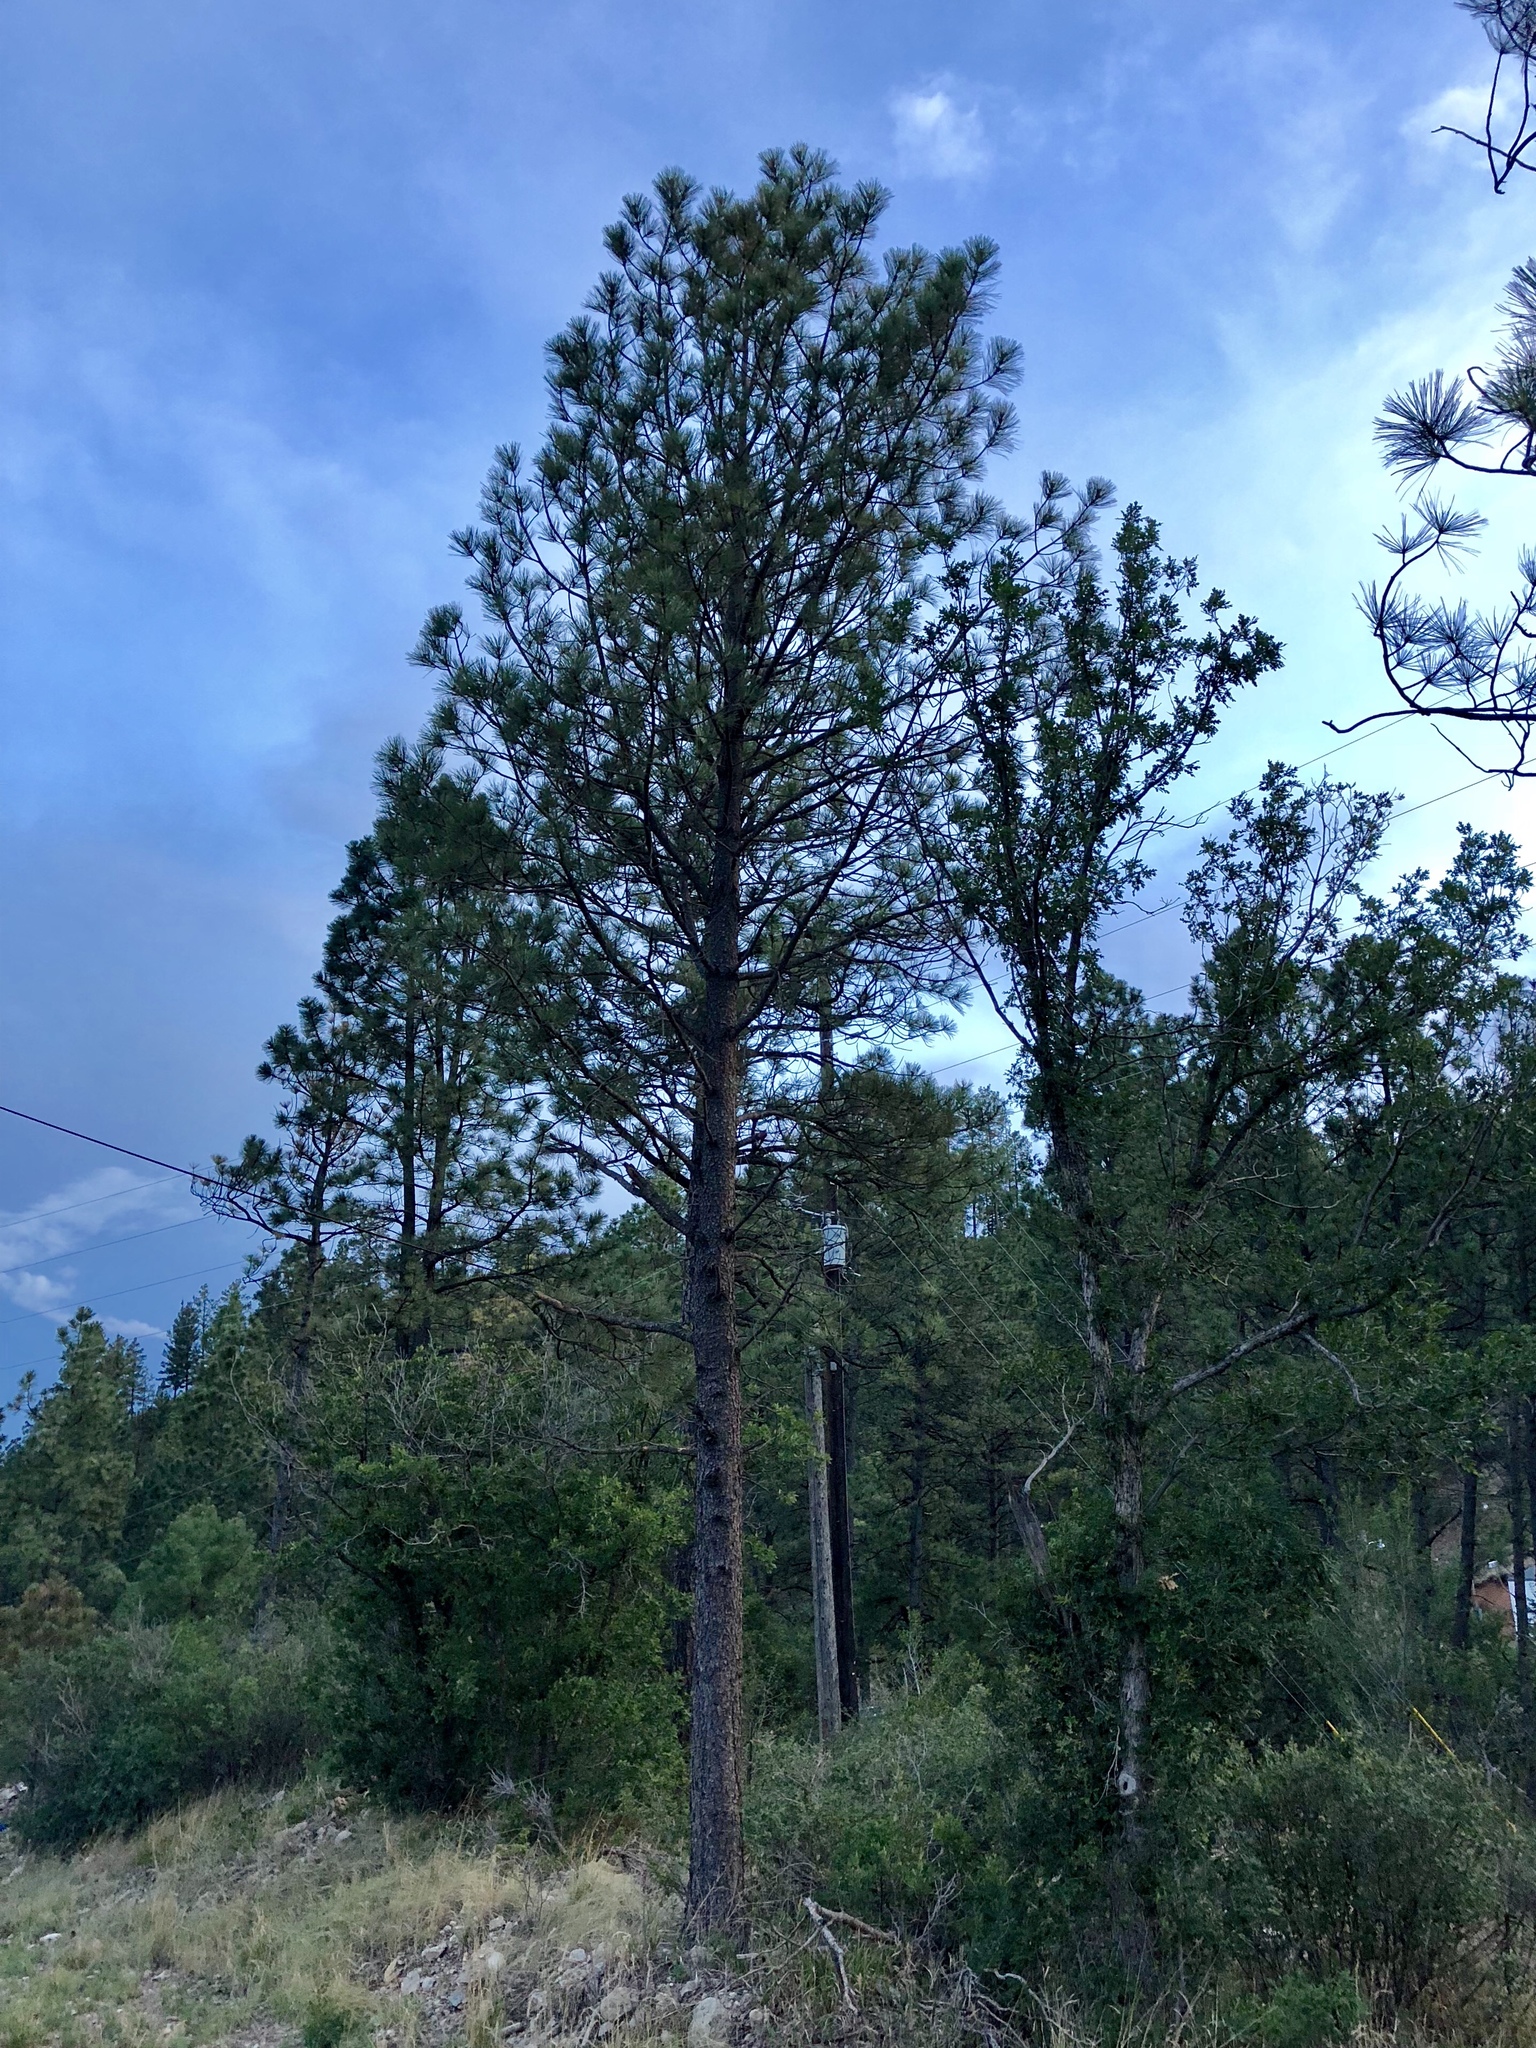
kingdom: Plantae
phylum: Tracheophyta
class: Pinopsida
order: Pinales
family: Pinaceae
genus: Pinus
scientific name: Pinus ponderosa
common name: Western yellow-pine
